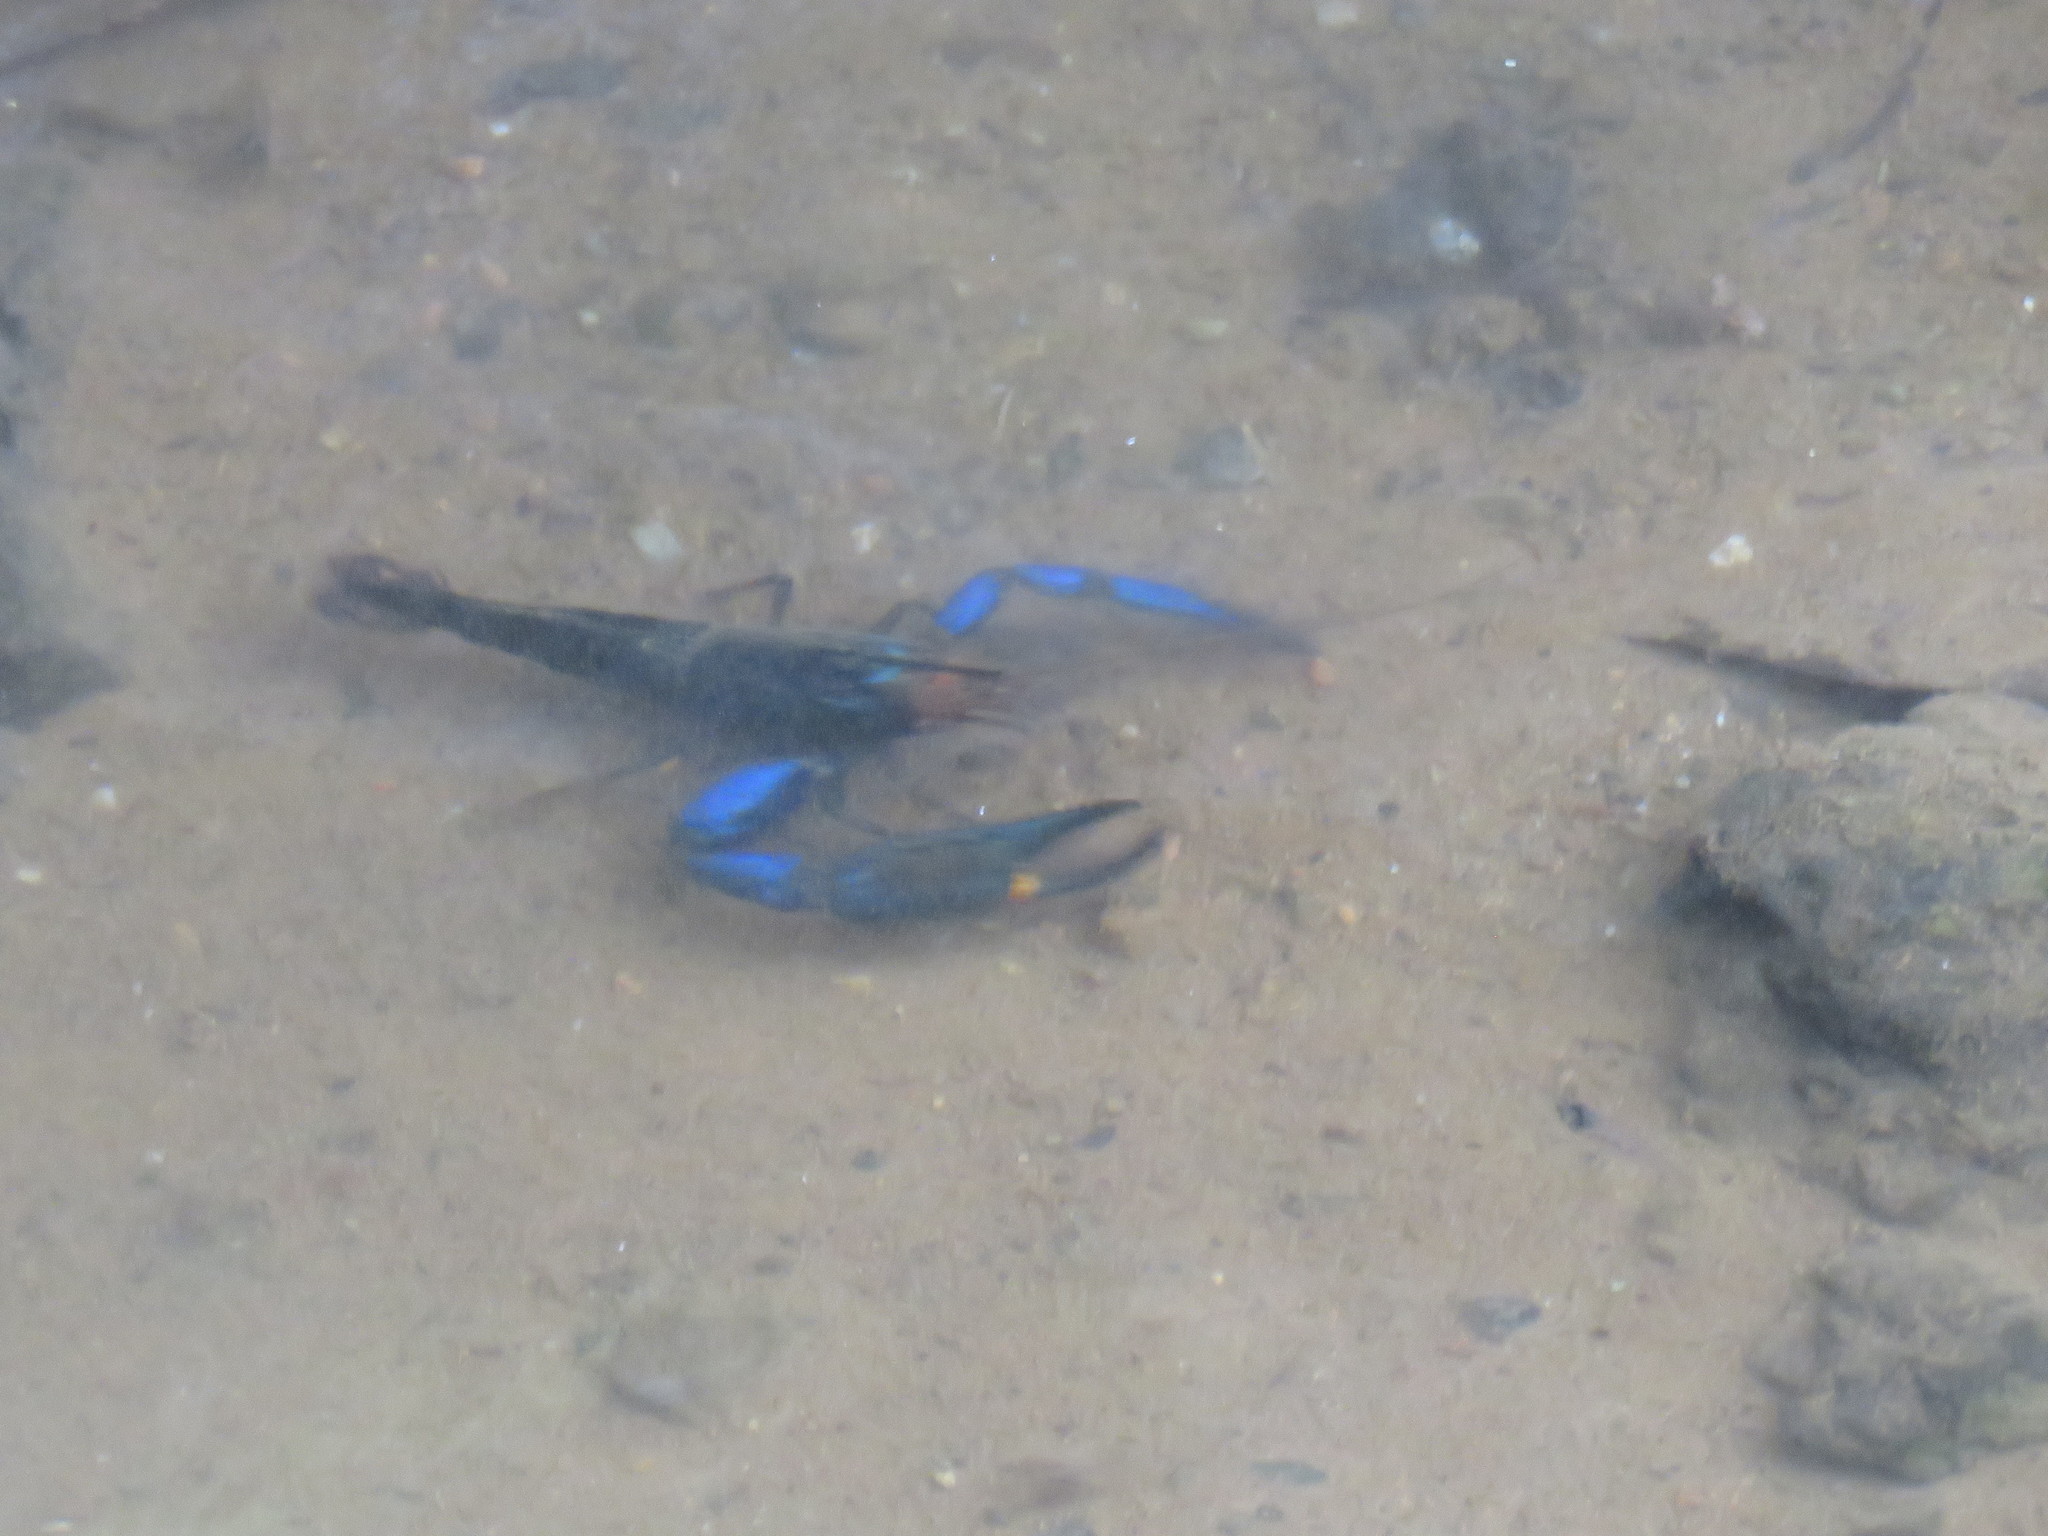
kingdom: Animalia
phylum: Arthropoda
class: Malacostraca
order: Decapoda
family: Palaemonidae
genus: Macrobrachium
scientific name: Macrobrachium hancocki
